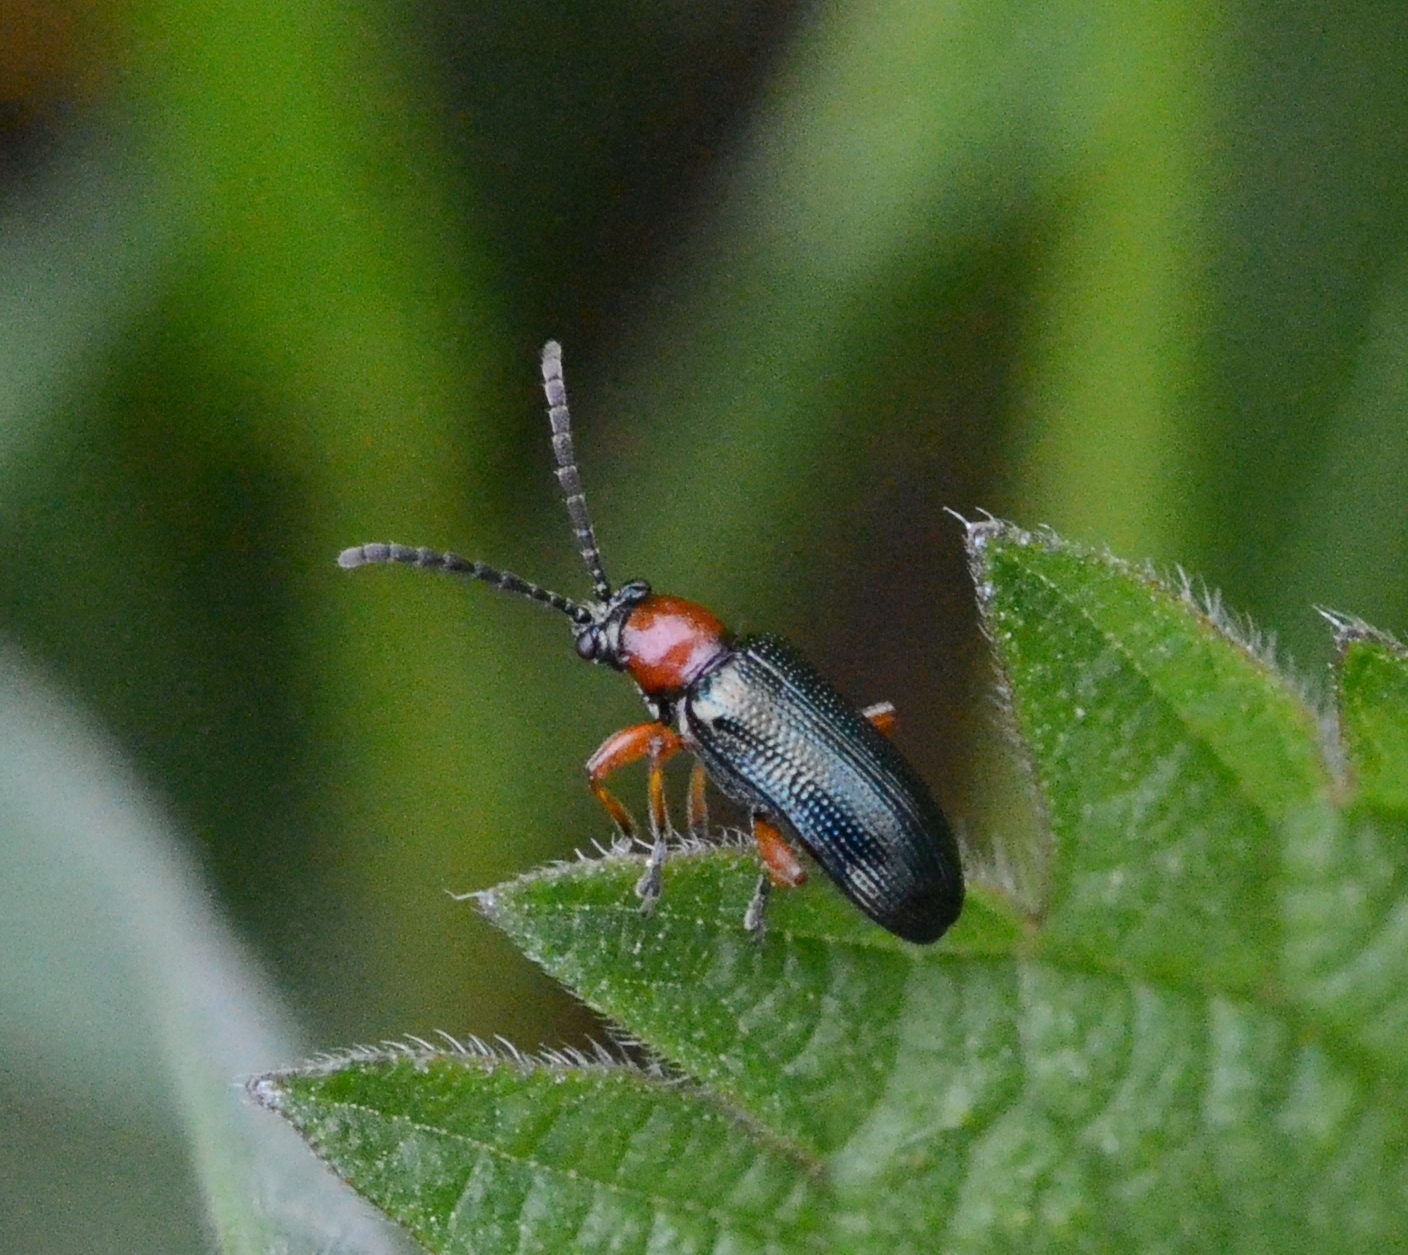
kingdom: Animalia
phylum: Arthropoda
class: Insecta
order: Coleoptera
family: Chrysomelidae
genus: Oulema
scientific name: Oulema
